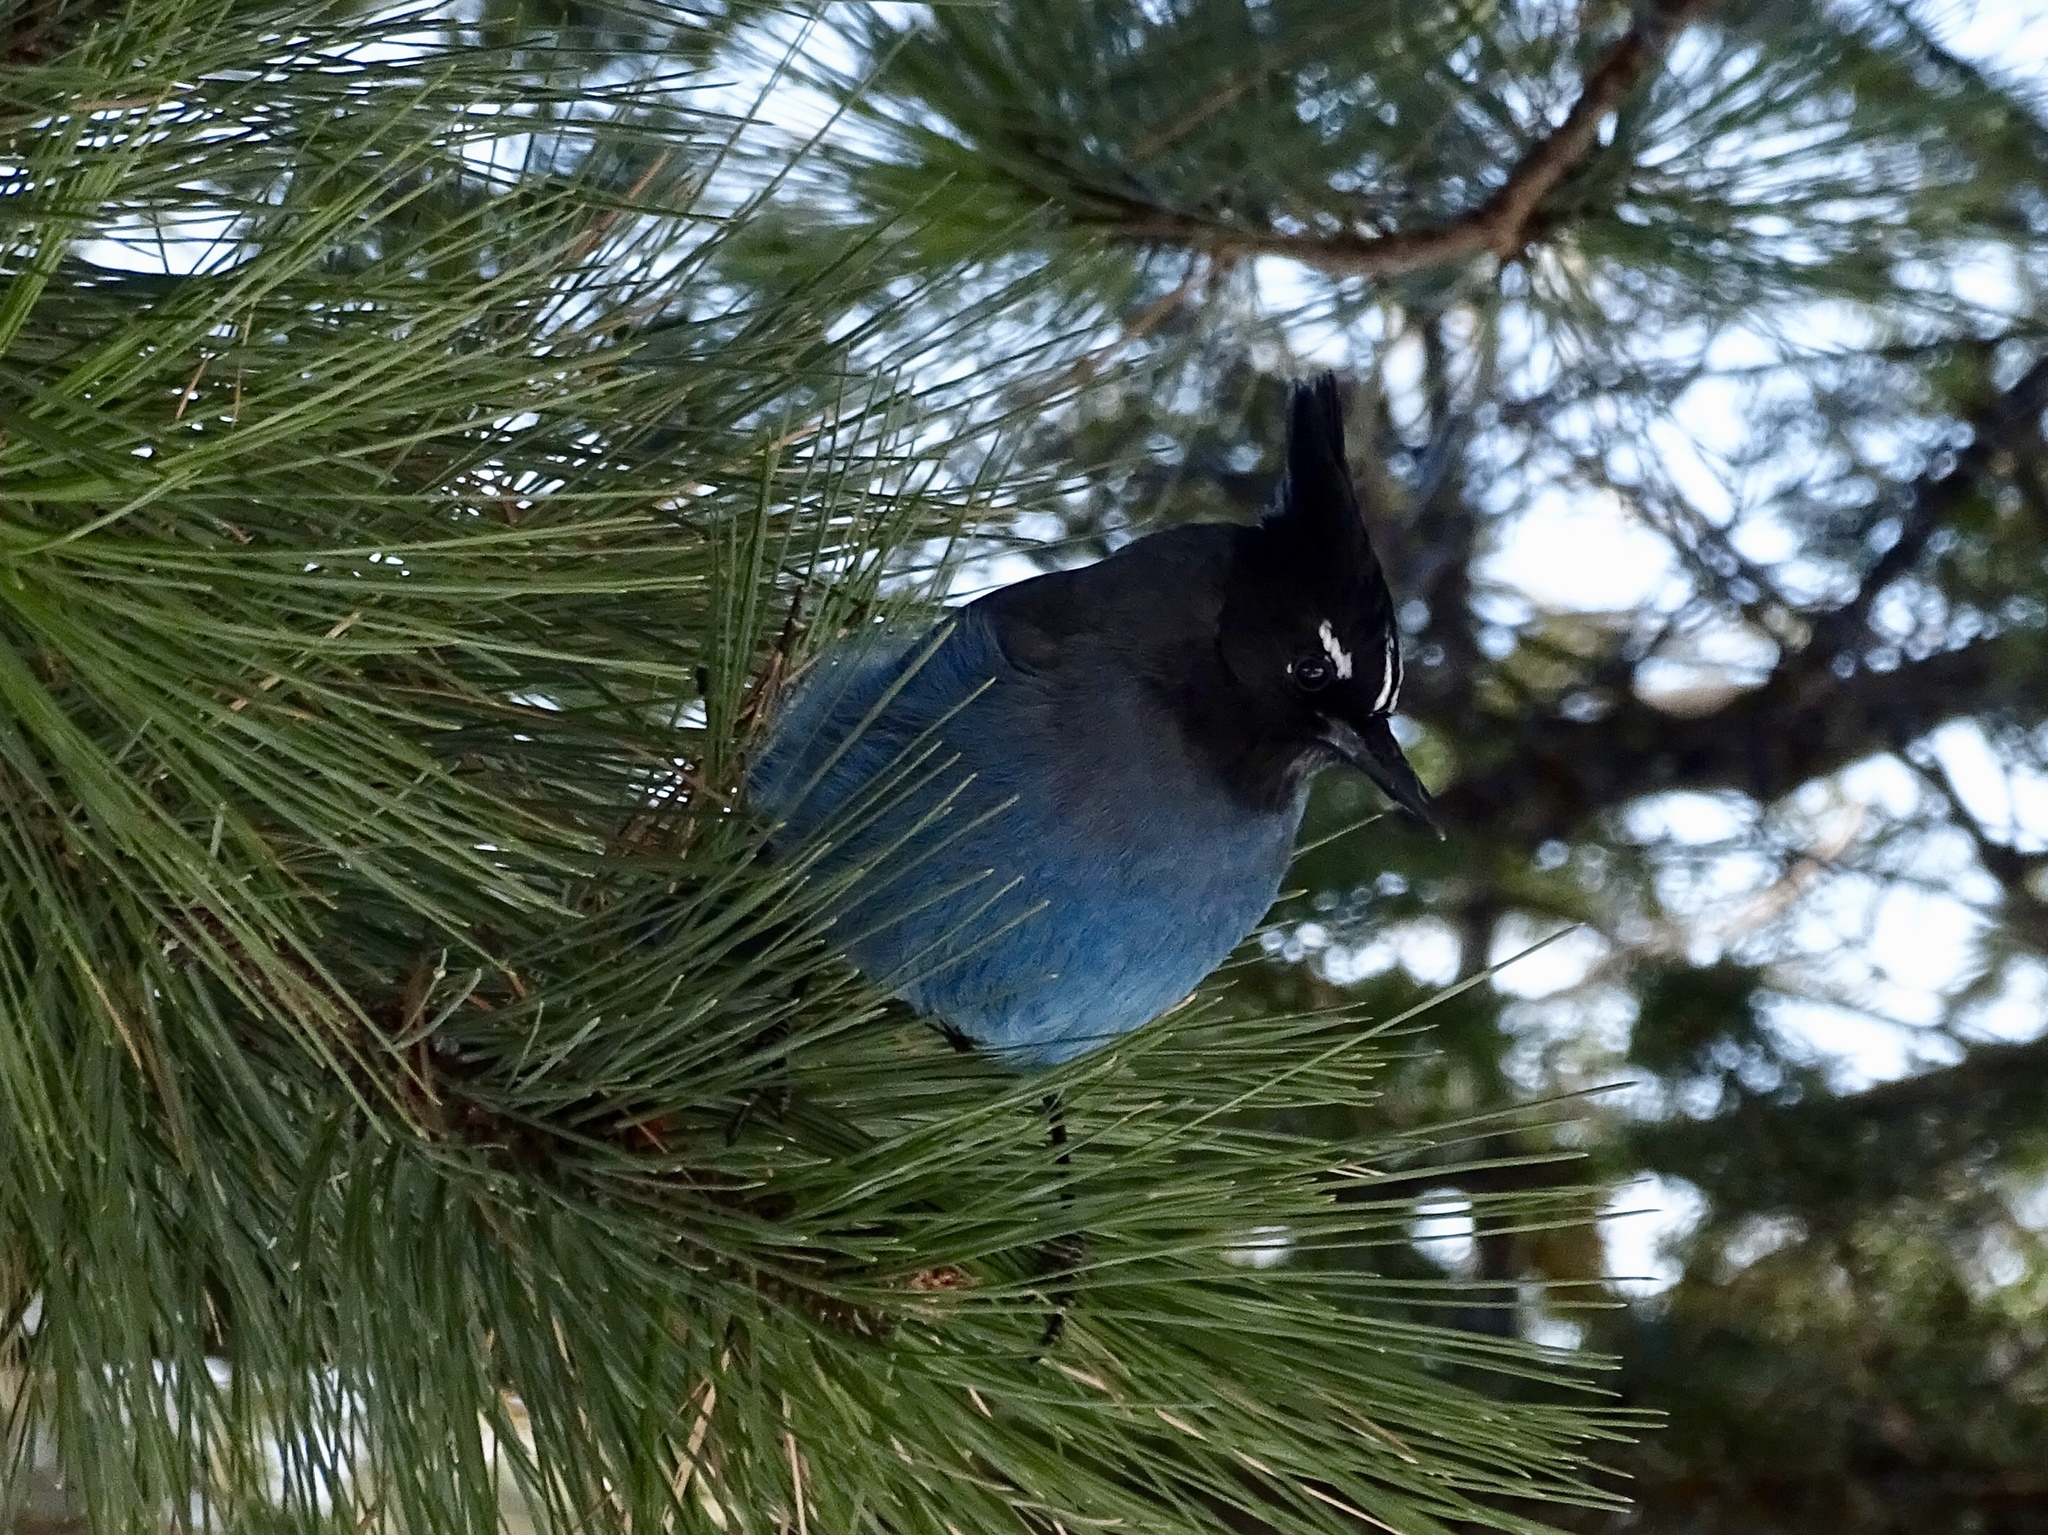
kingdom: Animalia
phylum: Chordata
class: Aves
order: Passeriformes
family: Corvidae
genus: Cyanocitta
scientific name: Cyanocitta stelleri
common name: Steller's jay
